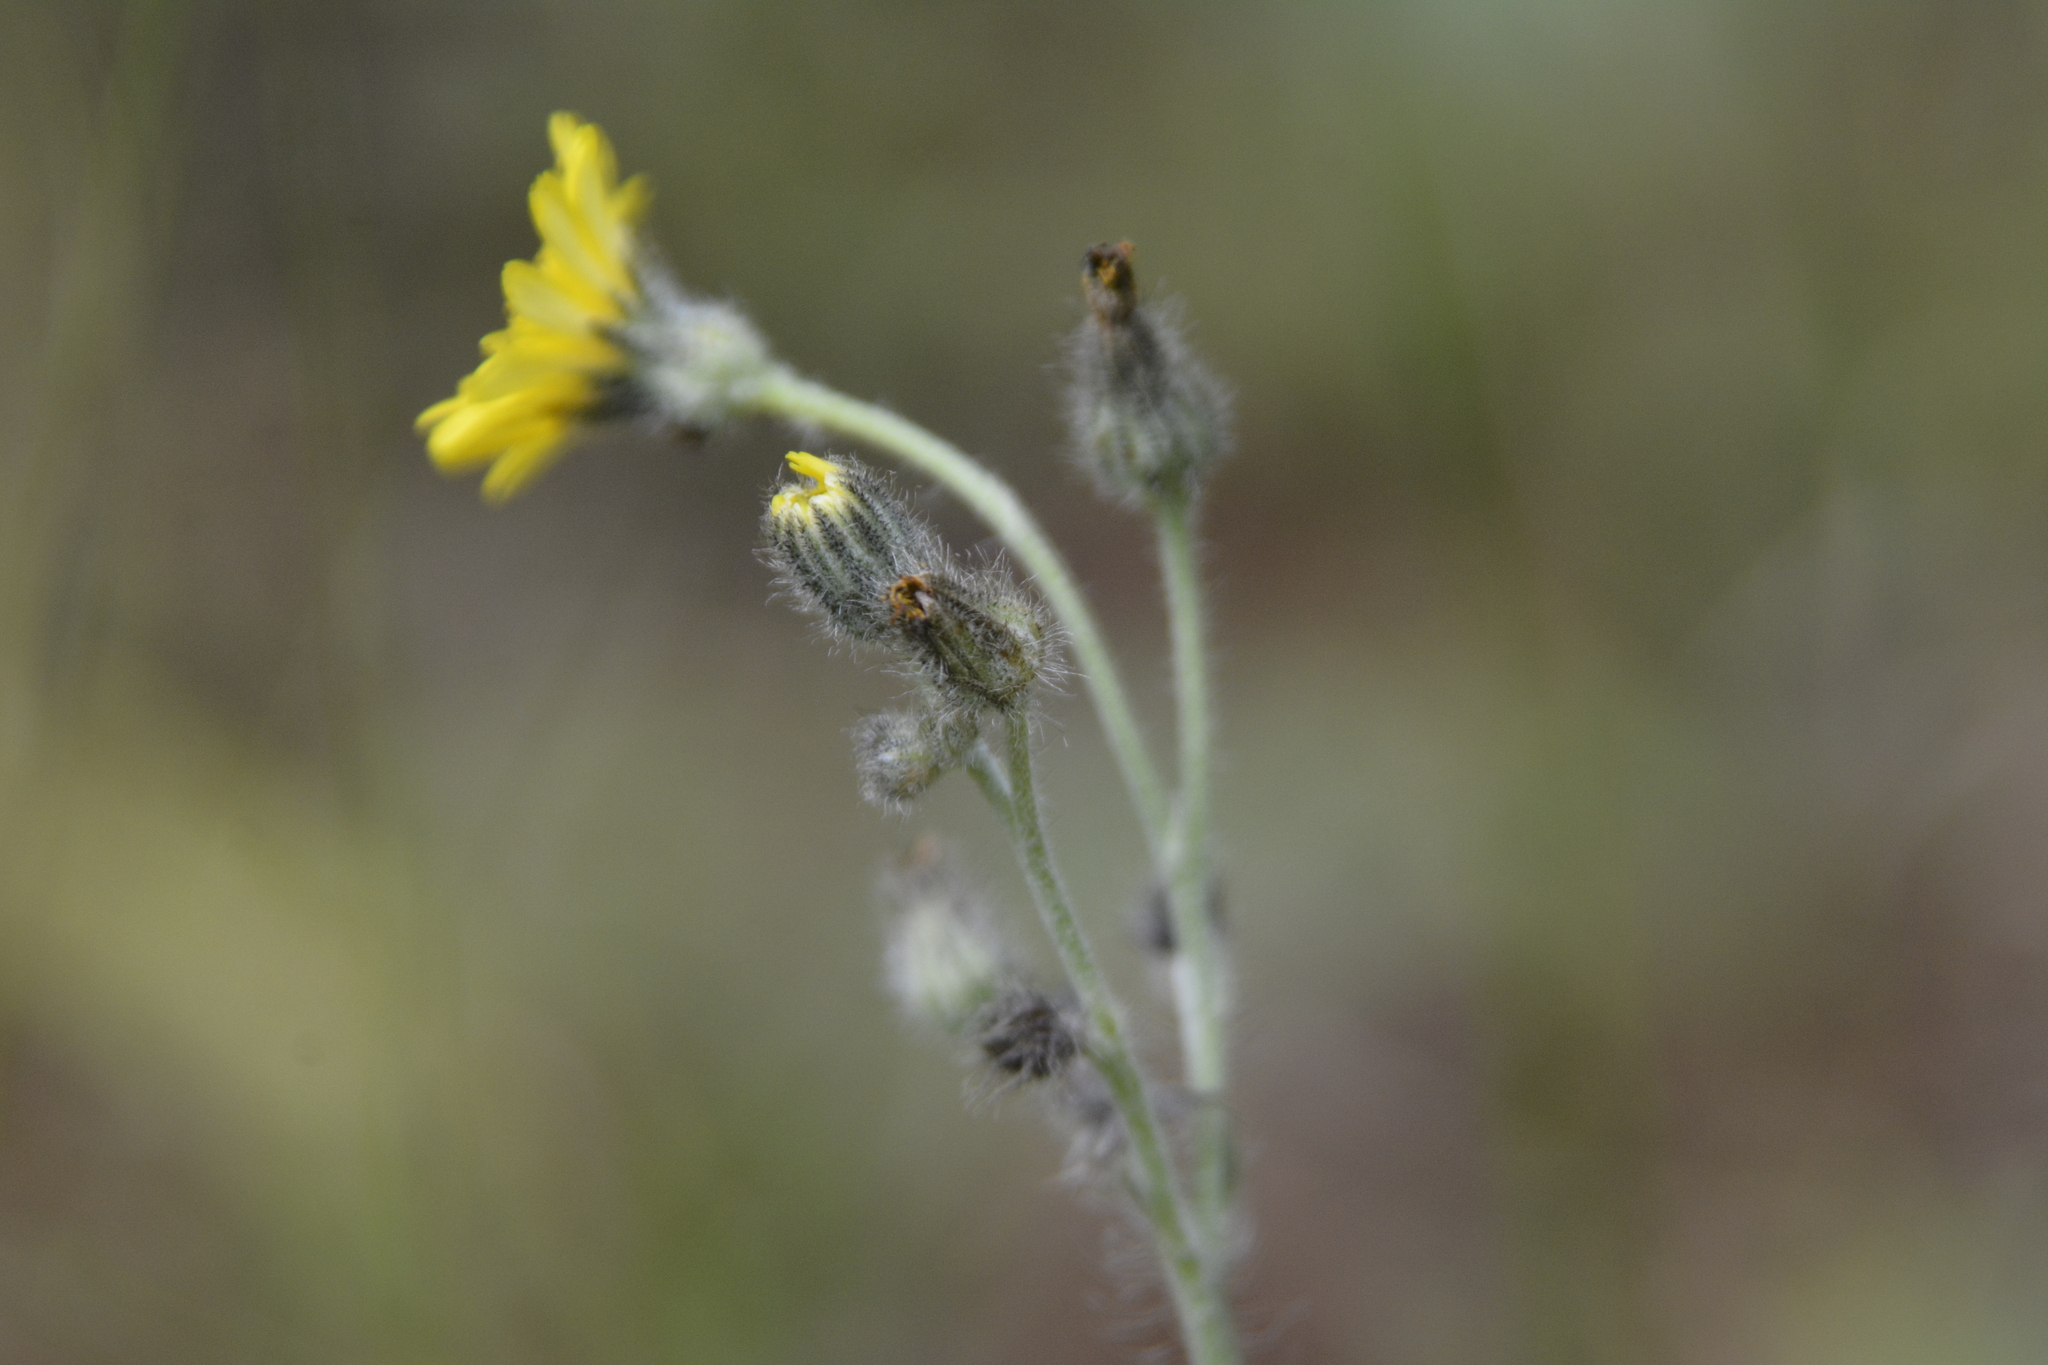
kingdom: Plantae
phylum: Tracheophyta
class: Magnoliopsida
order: Asterales
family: Asteraceae
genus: Pilosella
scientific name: Pilosella echioides
